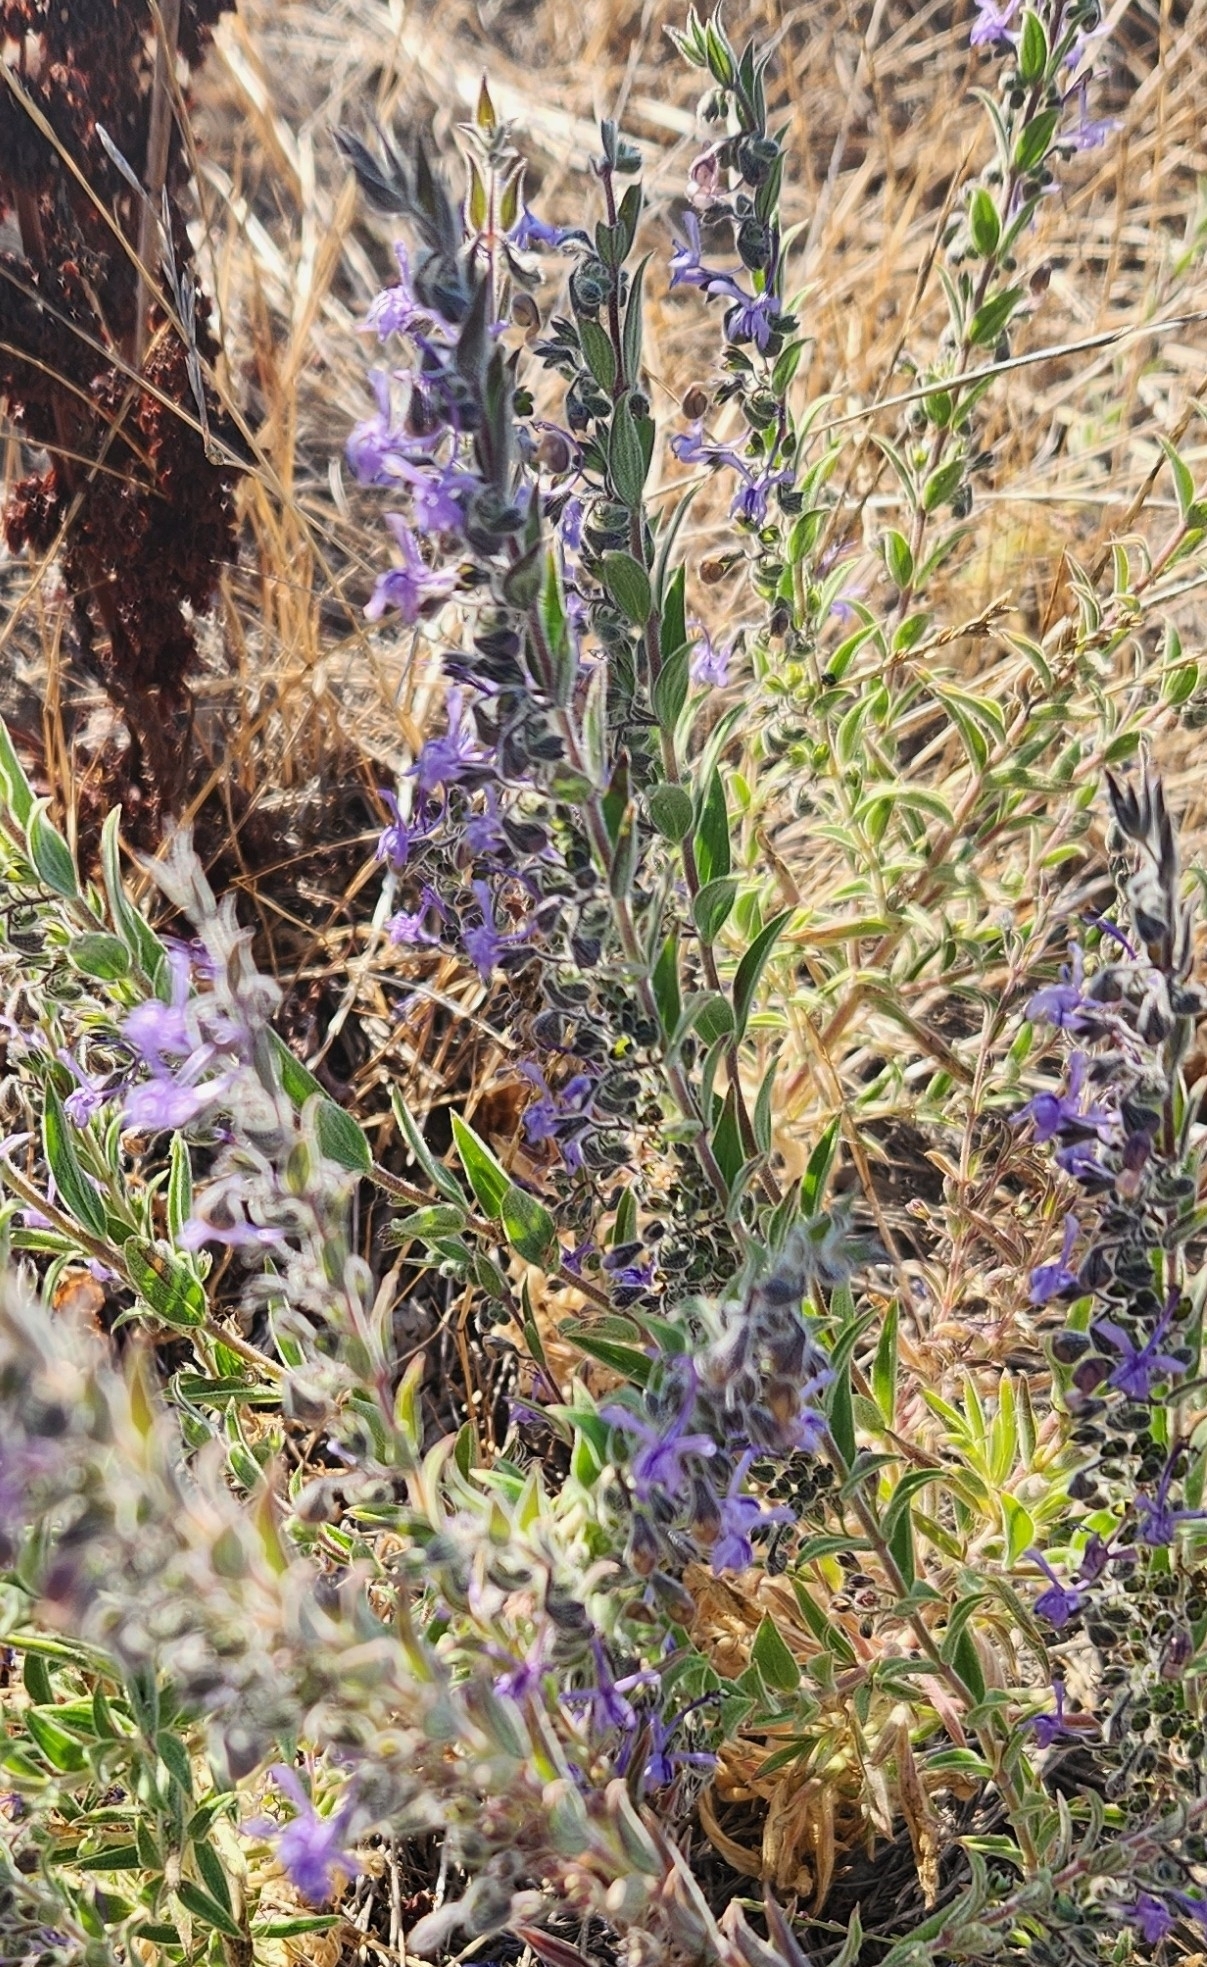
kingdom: Plantae
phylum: Tracheophyta
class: Magnoliopsida
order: Lamiales
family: Lamiaceae
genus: Trichostema
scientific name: Trichostema lanceolatum
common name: Vinegar-weed
